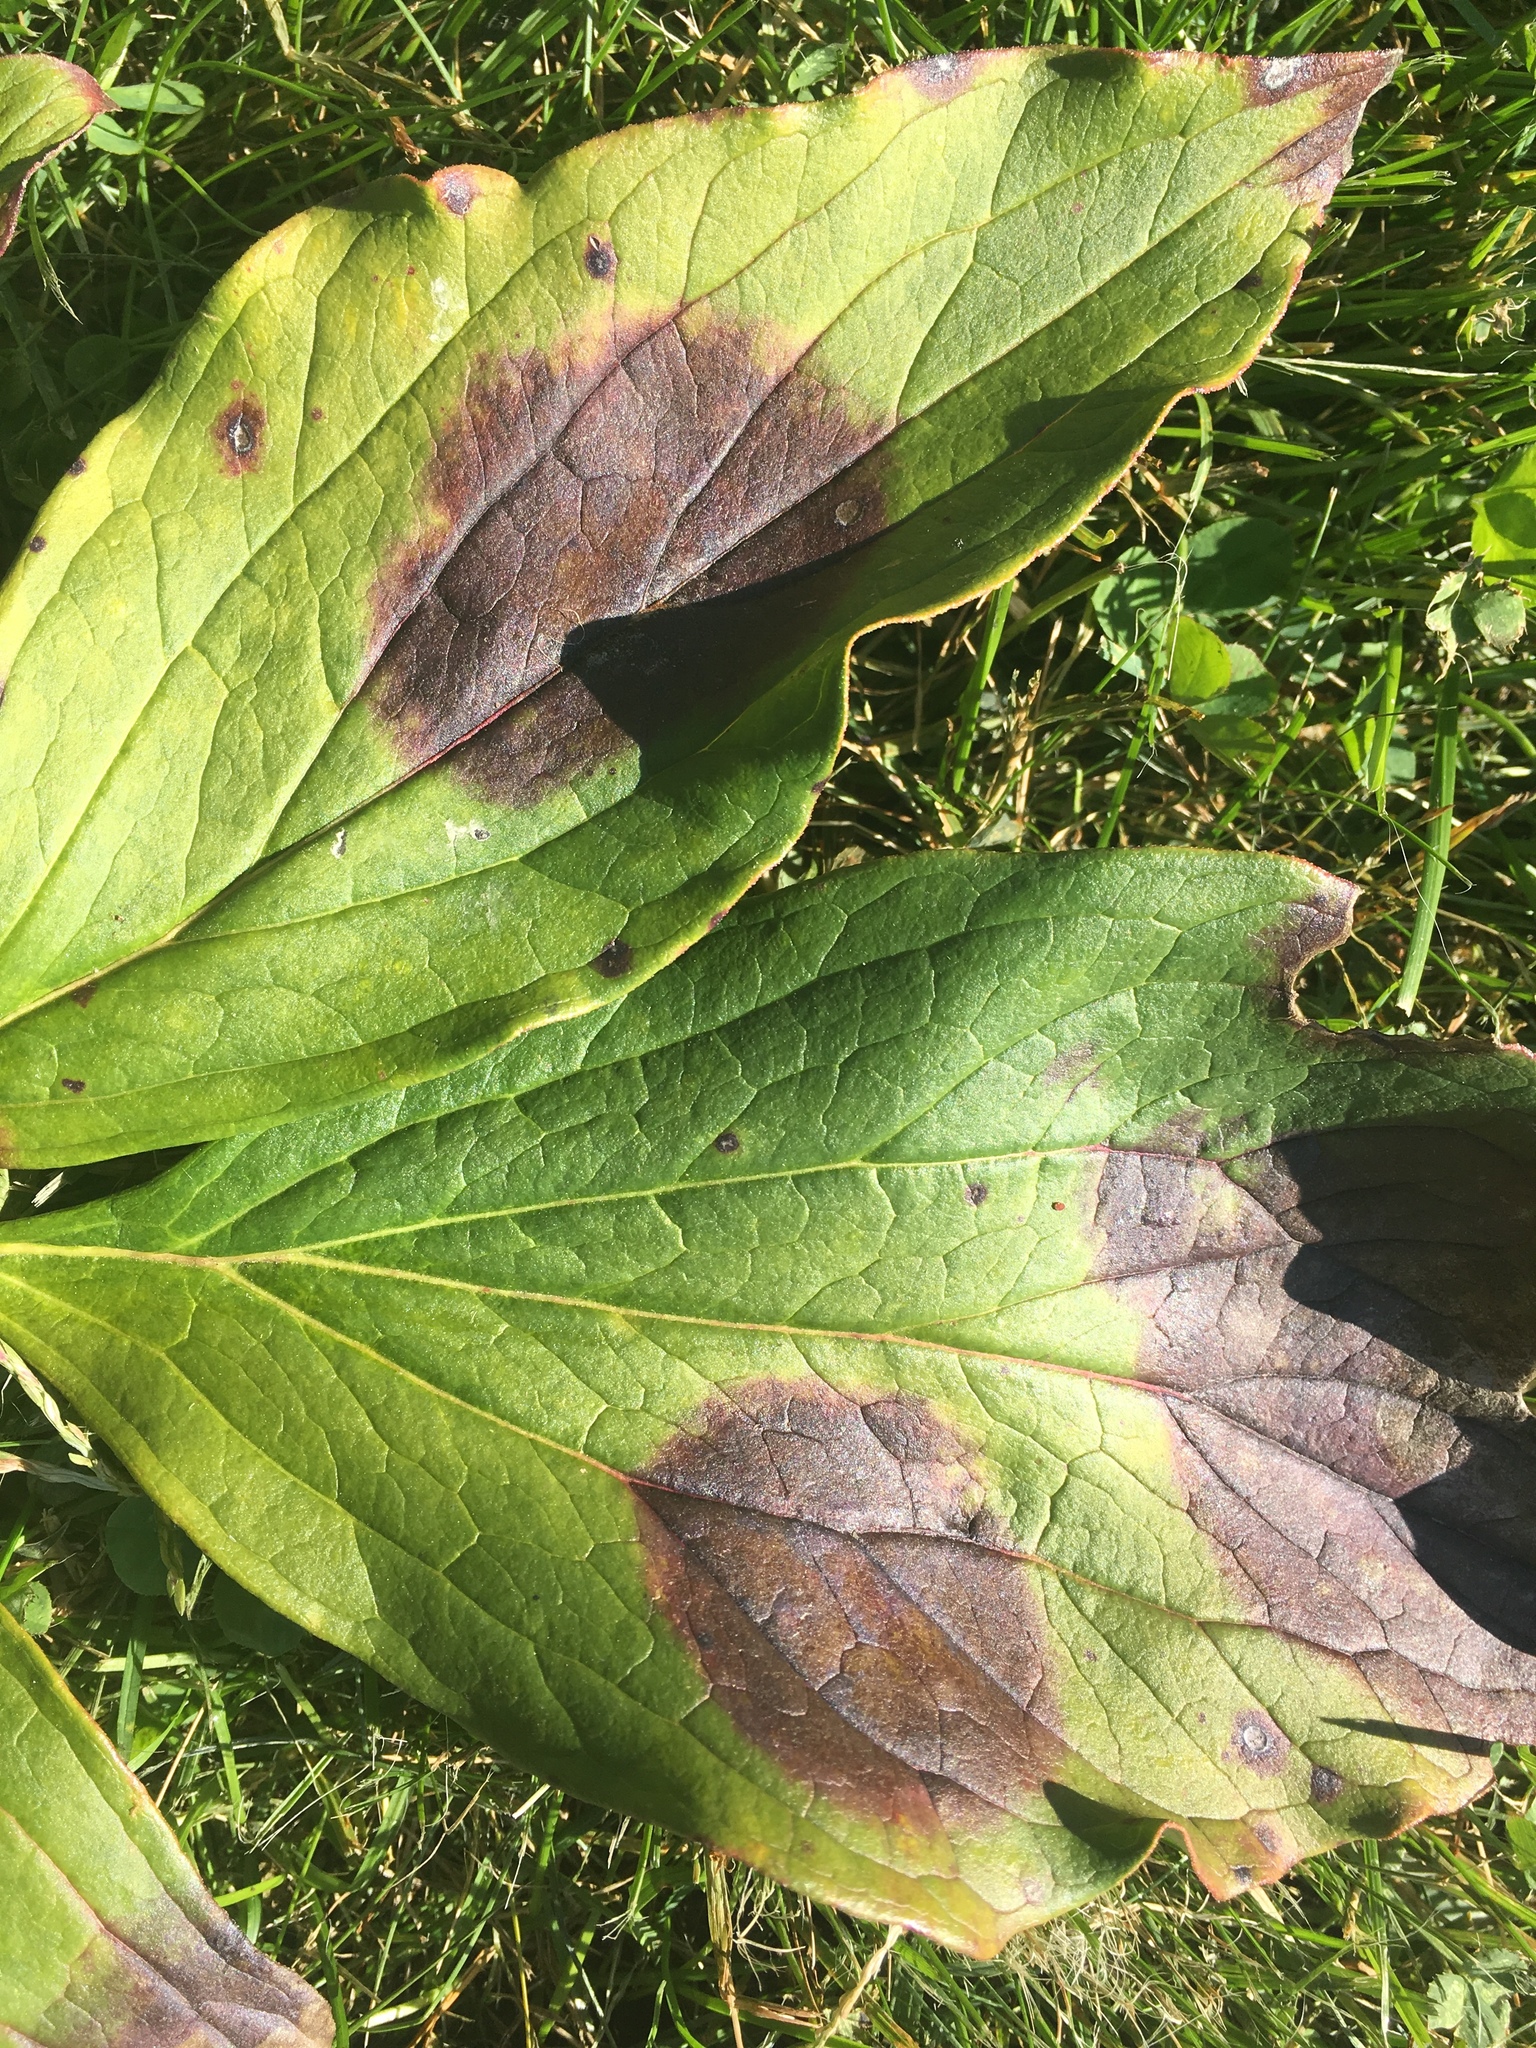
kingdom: Fungi
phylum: Ascomycota
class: Dothideomycetes
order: Capnodiales
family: Davidiellaceae
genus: Dichocladosporium
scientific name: Dichocladosporium chlorocephalum
